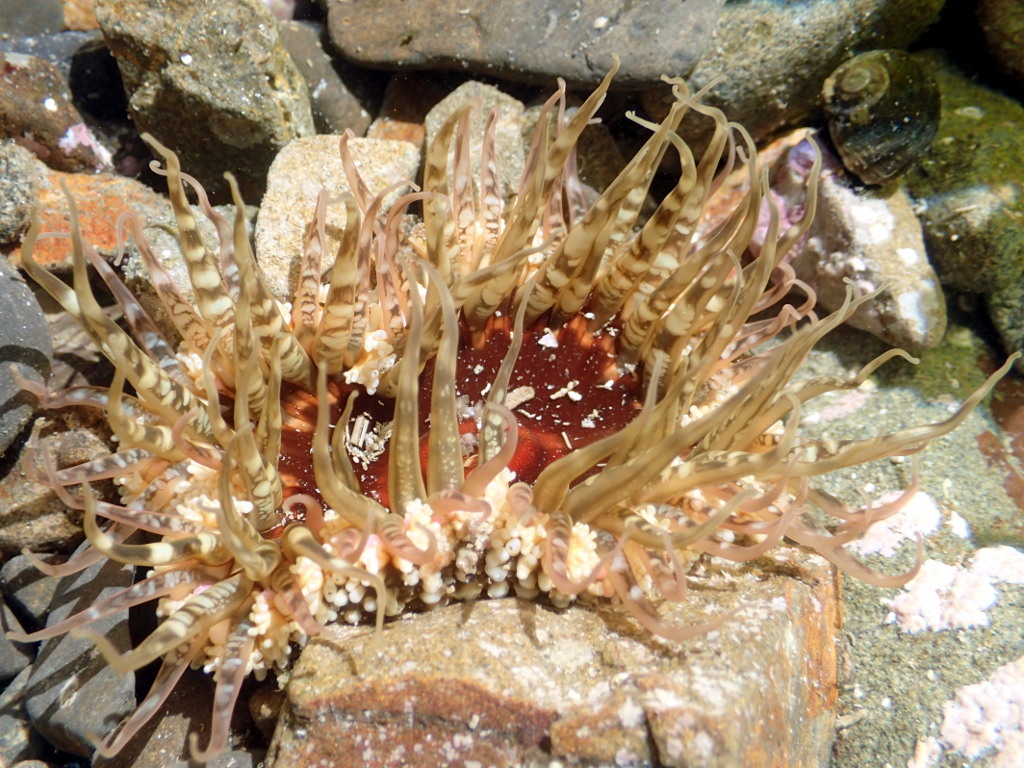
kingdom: Animalia
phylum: Cnidaria
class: Anthozoa
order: Actiniaria
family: Actiniidae
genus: Oulactis
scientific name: Oulactis muscosa
